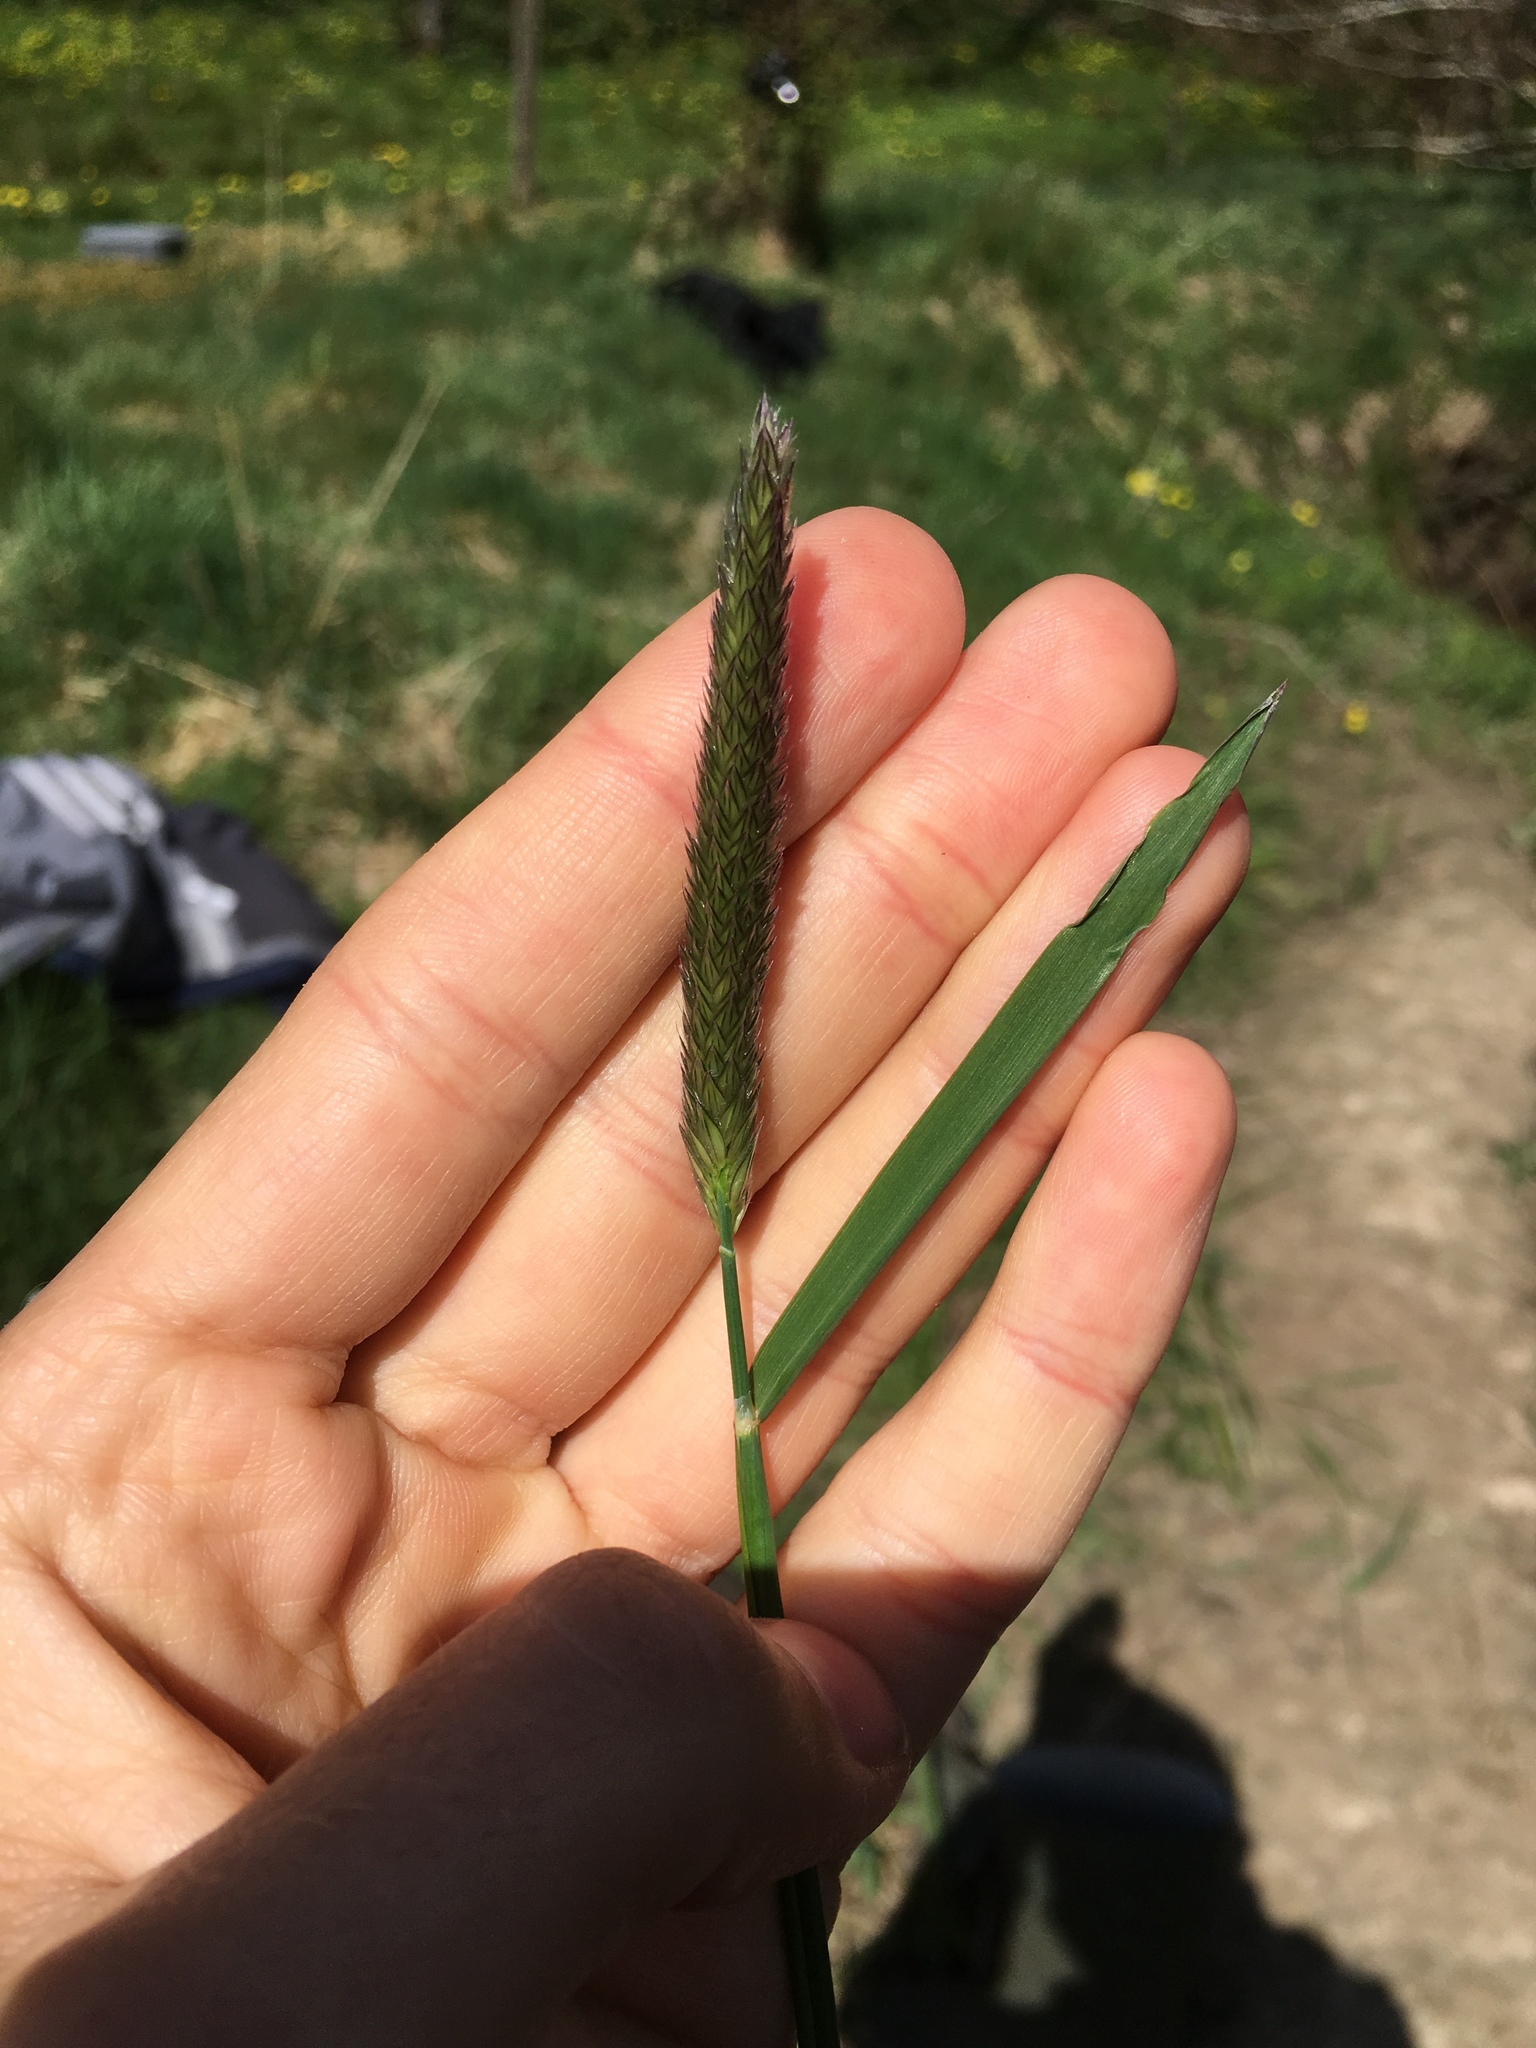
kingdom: Plantae
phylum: Tracheophyta
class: Liliopsida
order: Poales
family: Poaceae
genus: Alopecurus
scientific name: Alopecurus pratensis
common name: Meadow foxtail
